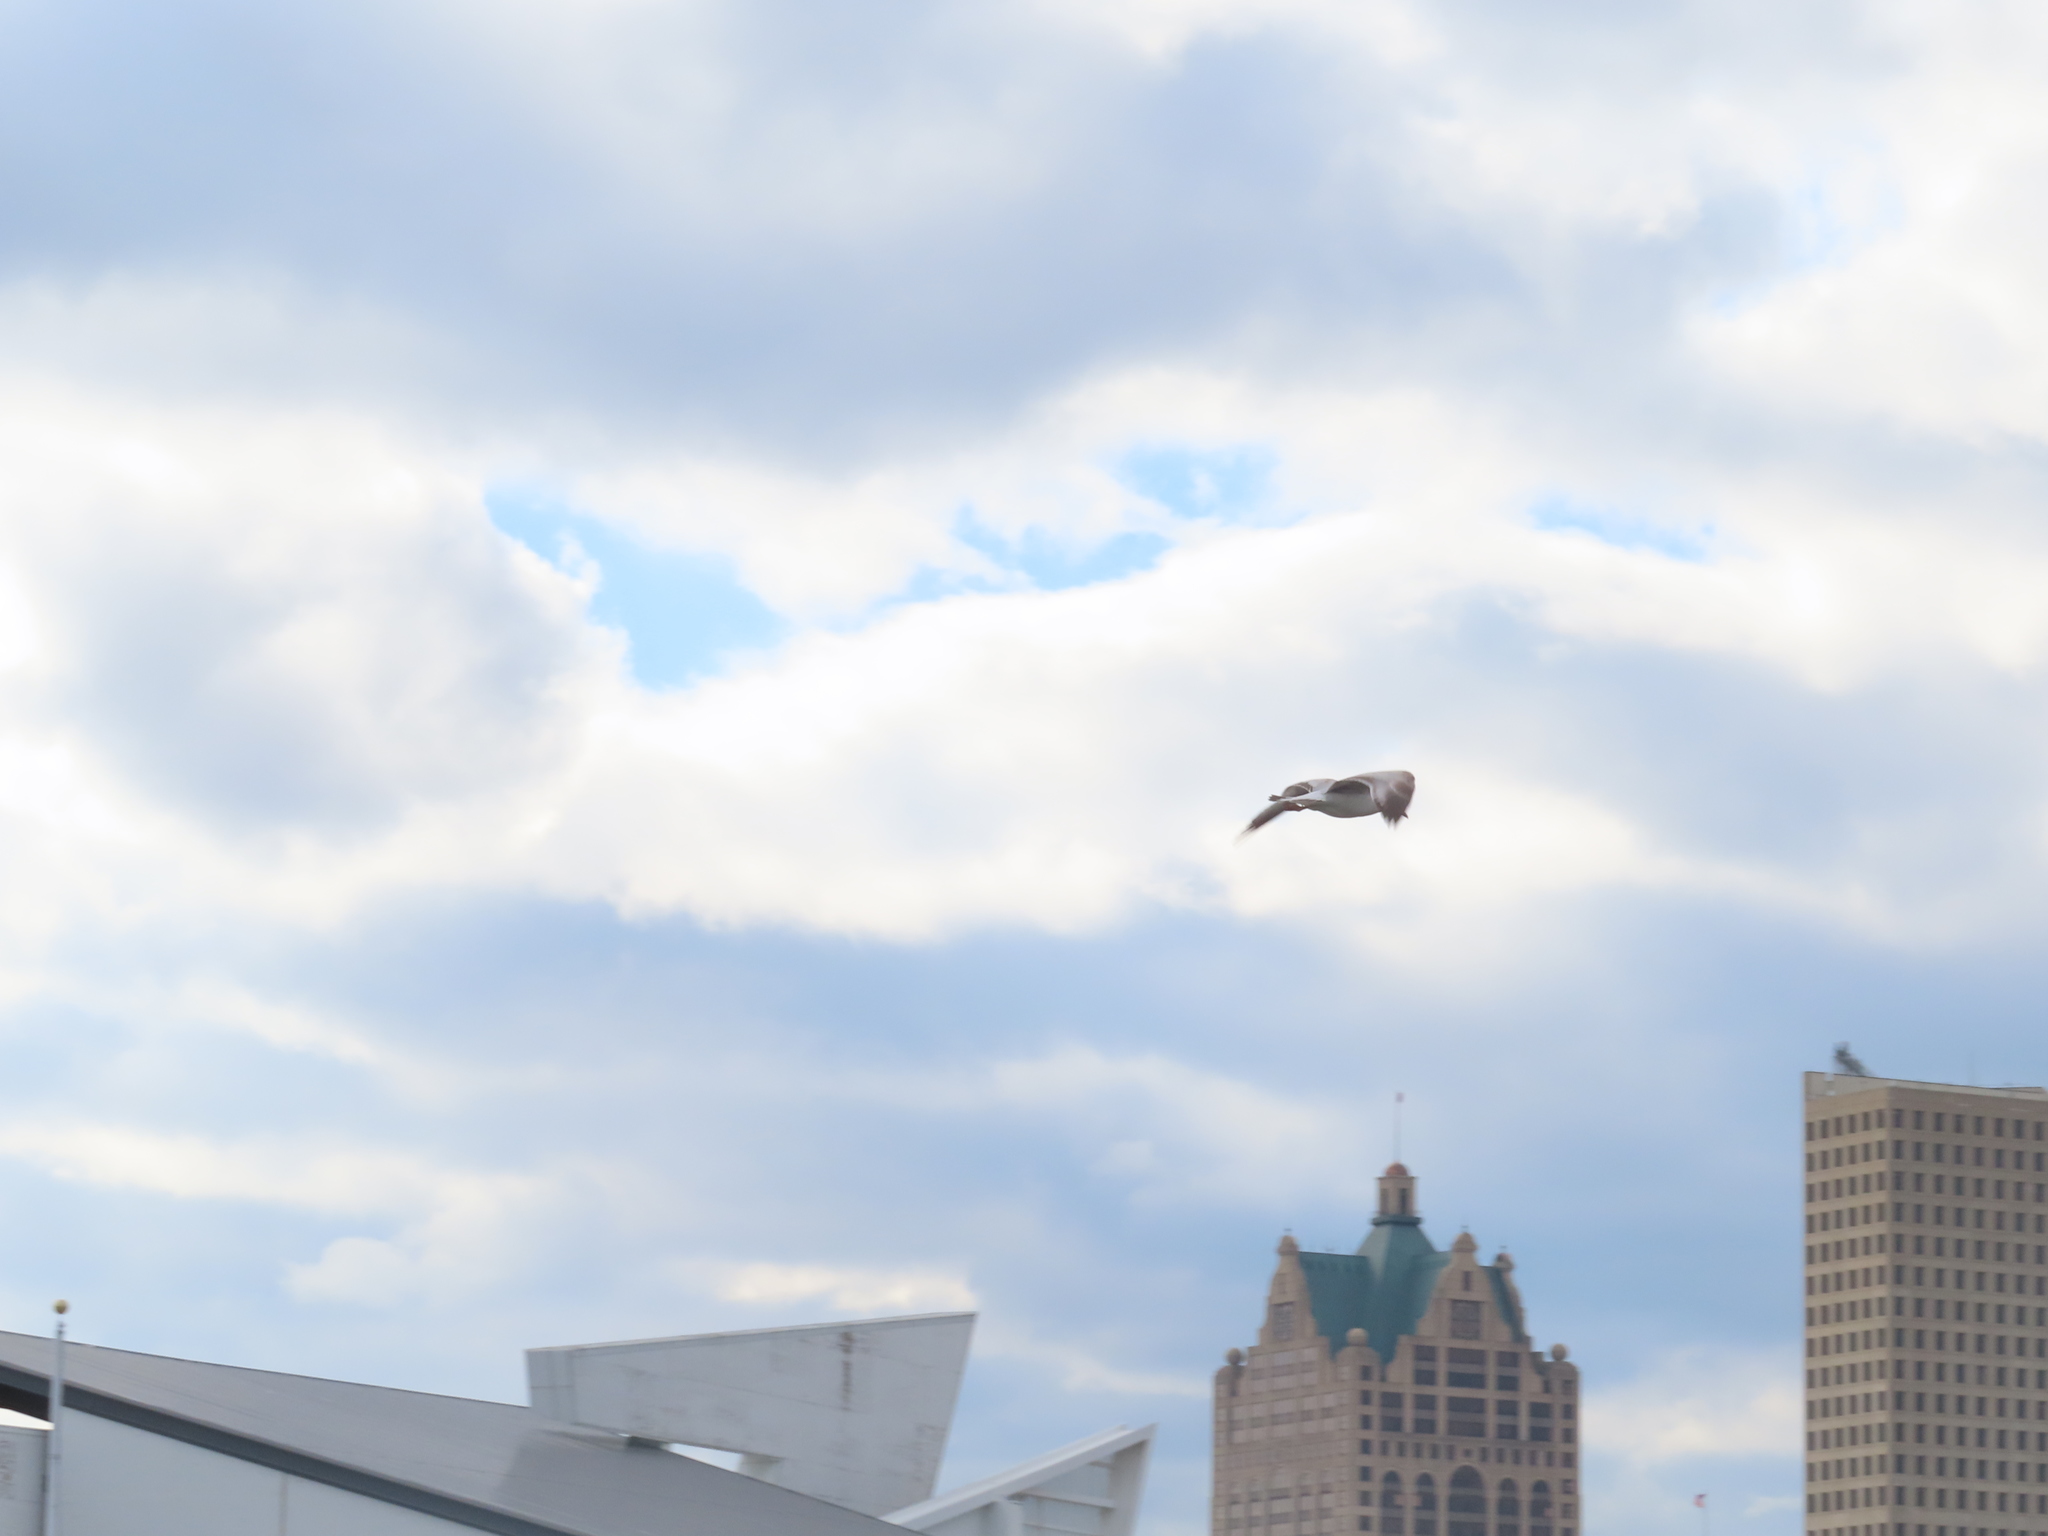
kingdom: Animalia
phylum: Chordata
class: Aves
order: Charadriiformes
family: Laridae
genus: Larus
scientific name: Larus delawarensis
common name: Ring-billed gull
